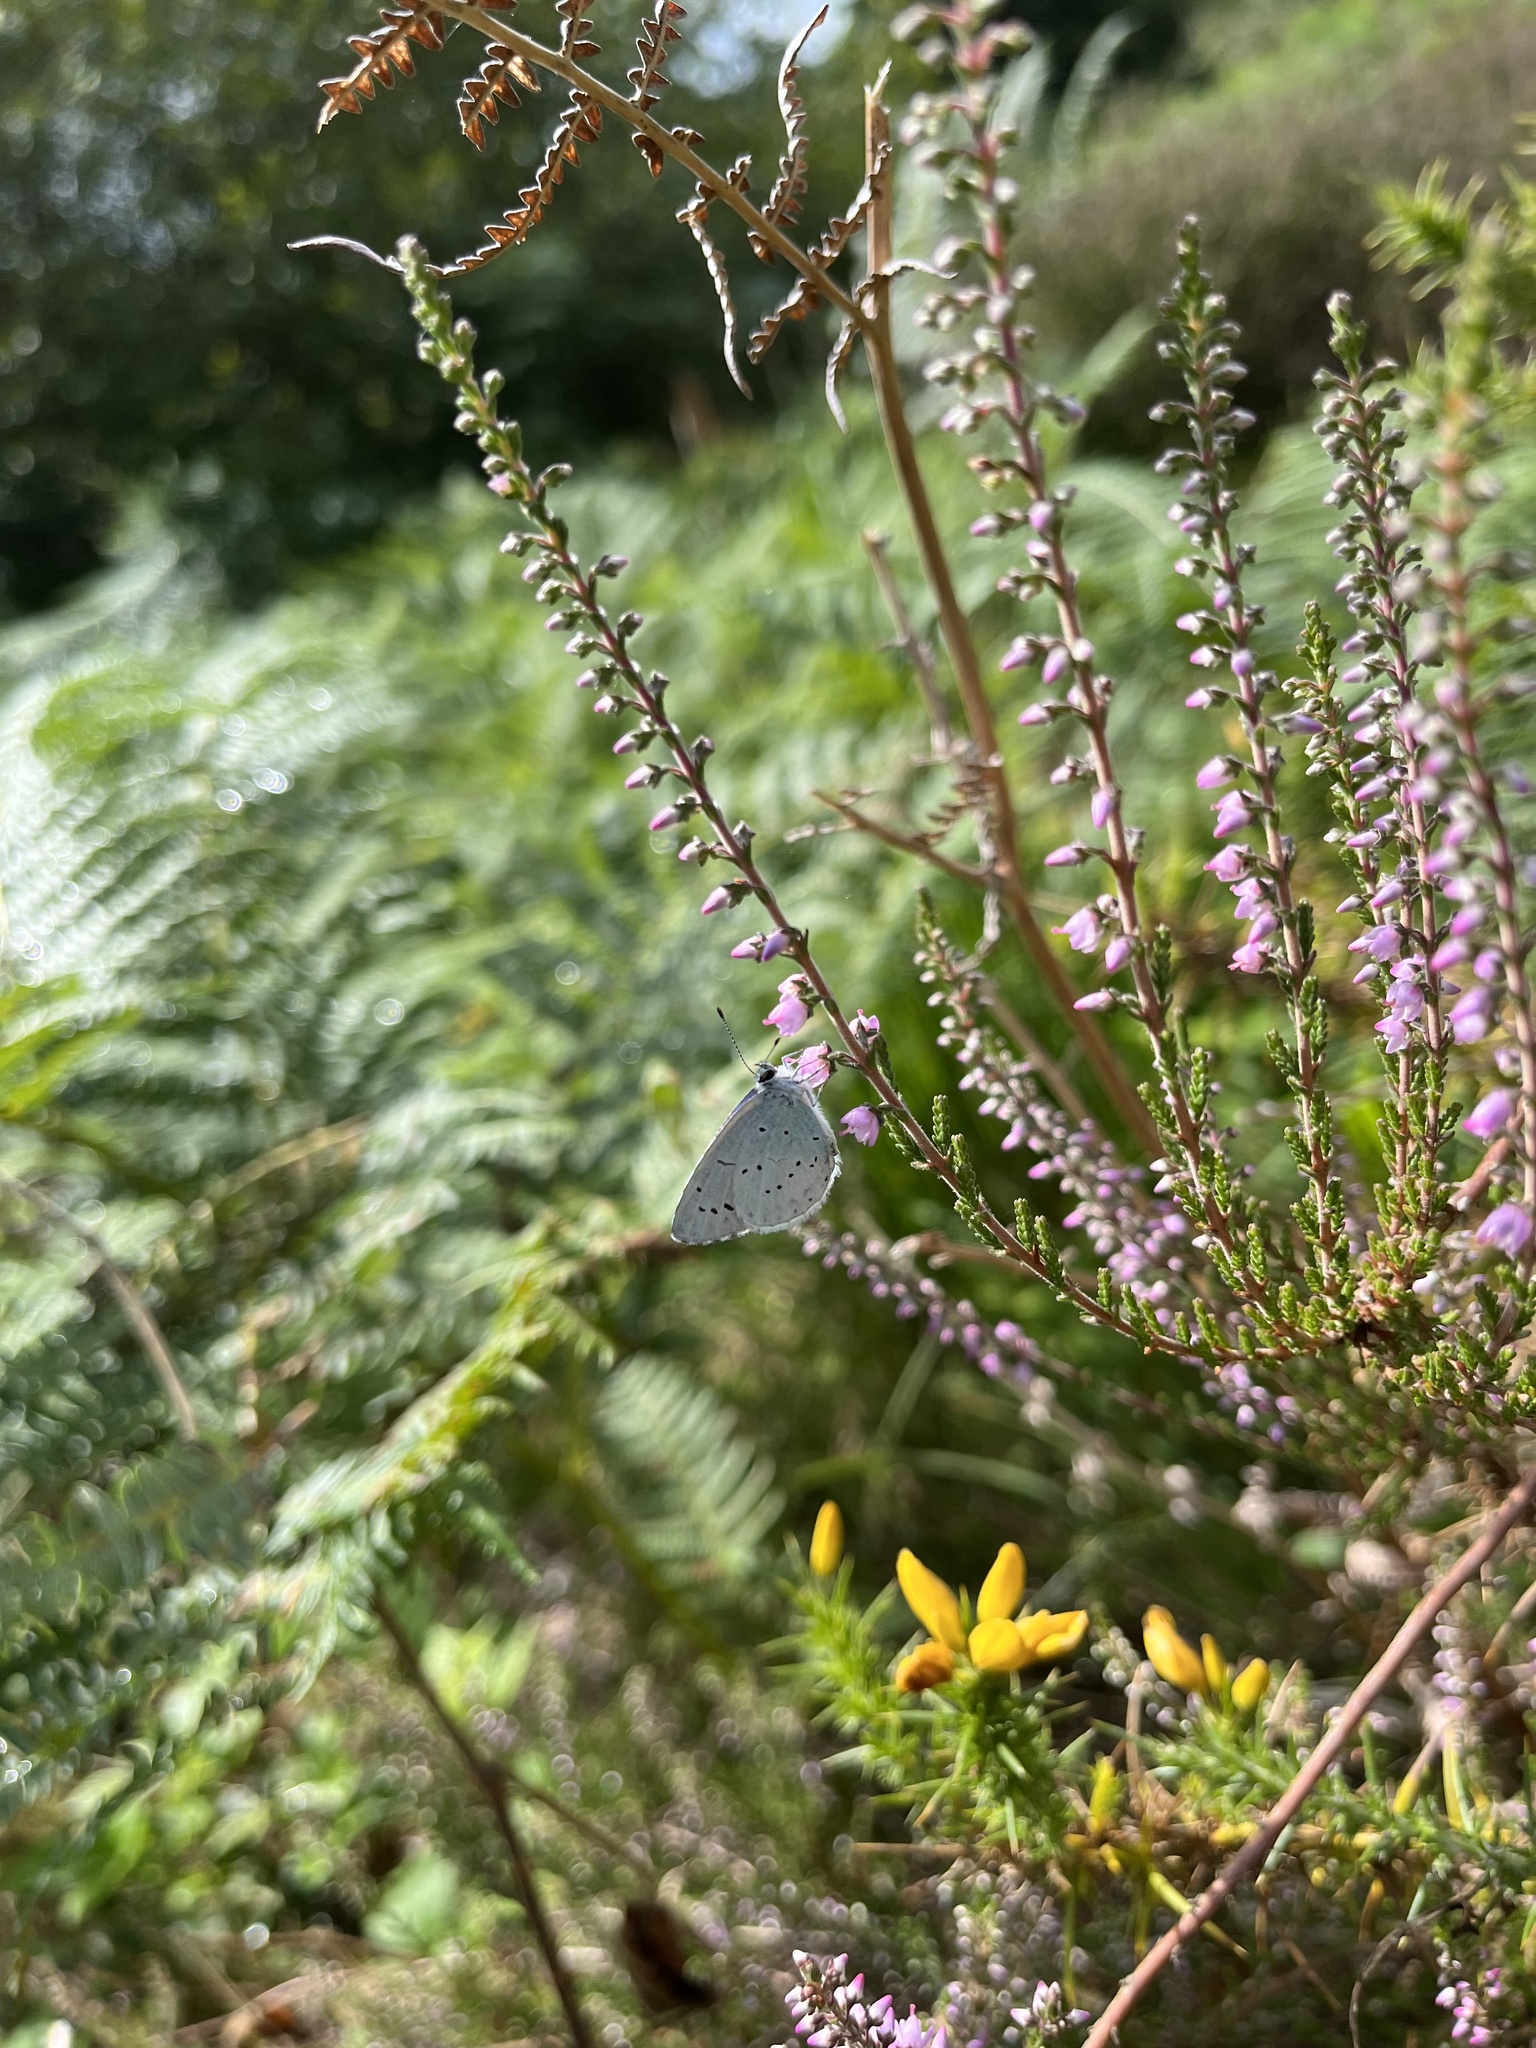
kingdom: Animalia
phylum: Arthropoda
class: Insecta
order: Lepidoptera
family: Lycaenidae
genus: Celastrina
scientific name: Celastrina argiolus
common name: Holly blue
